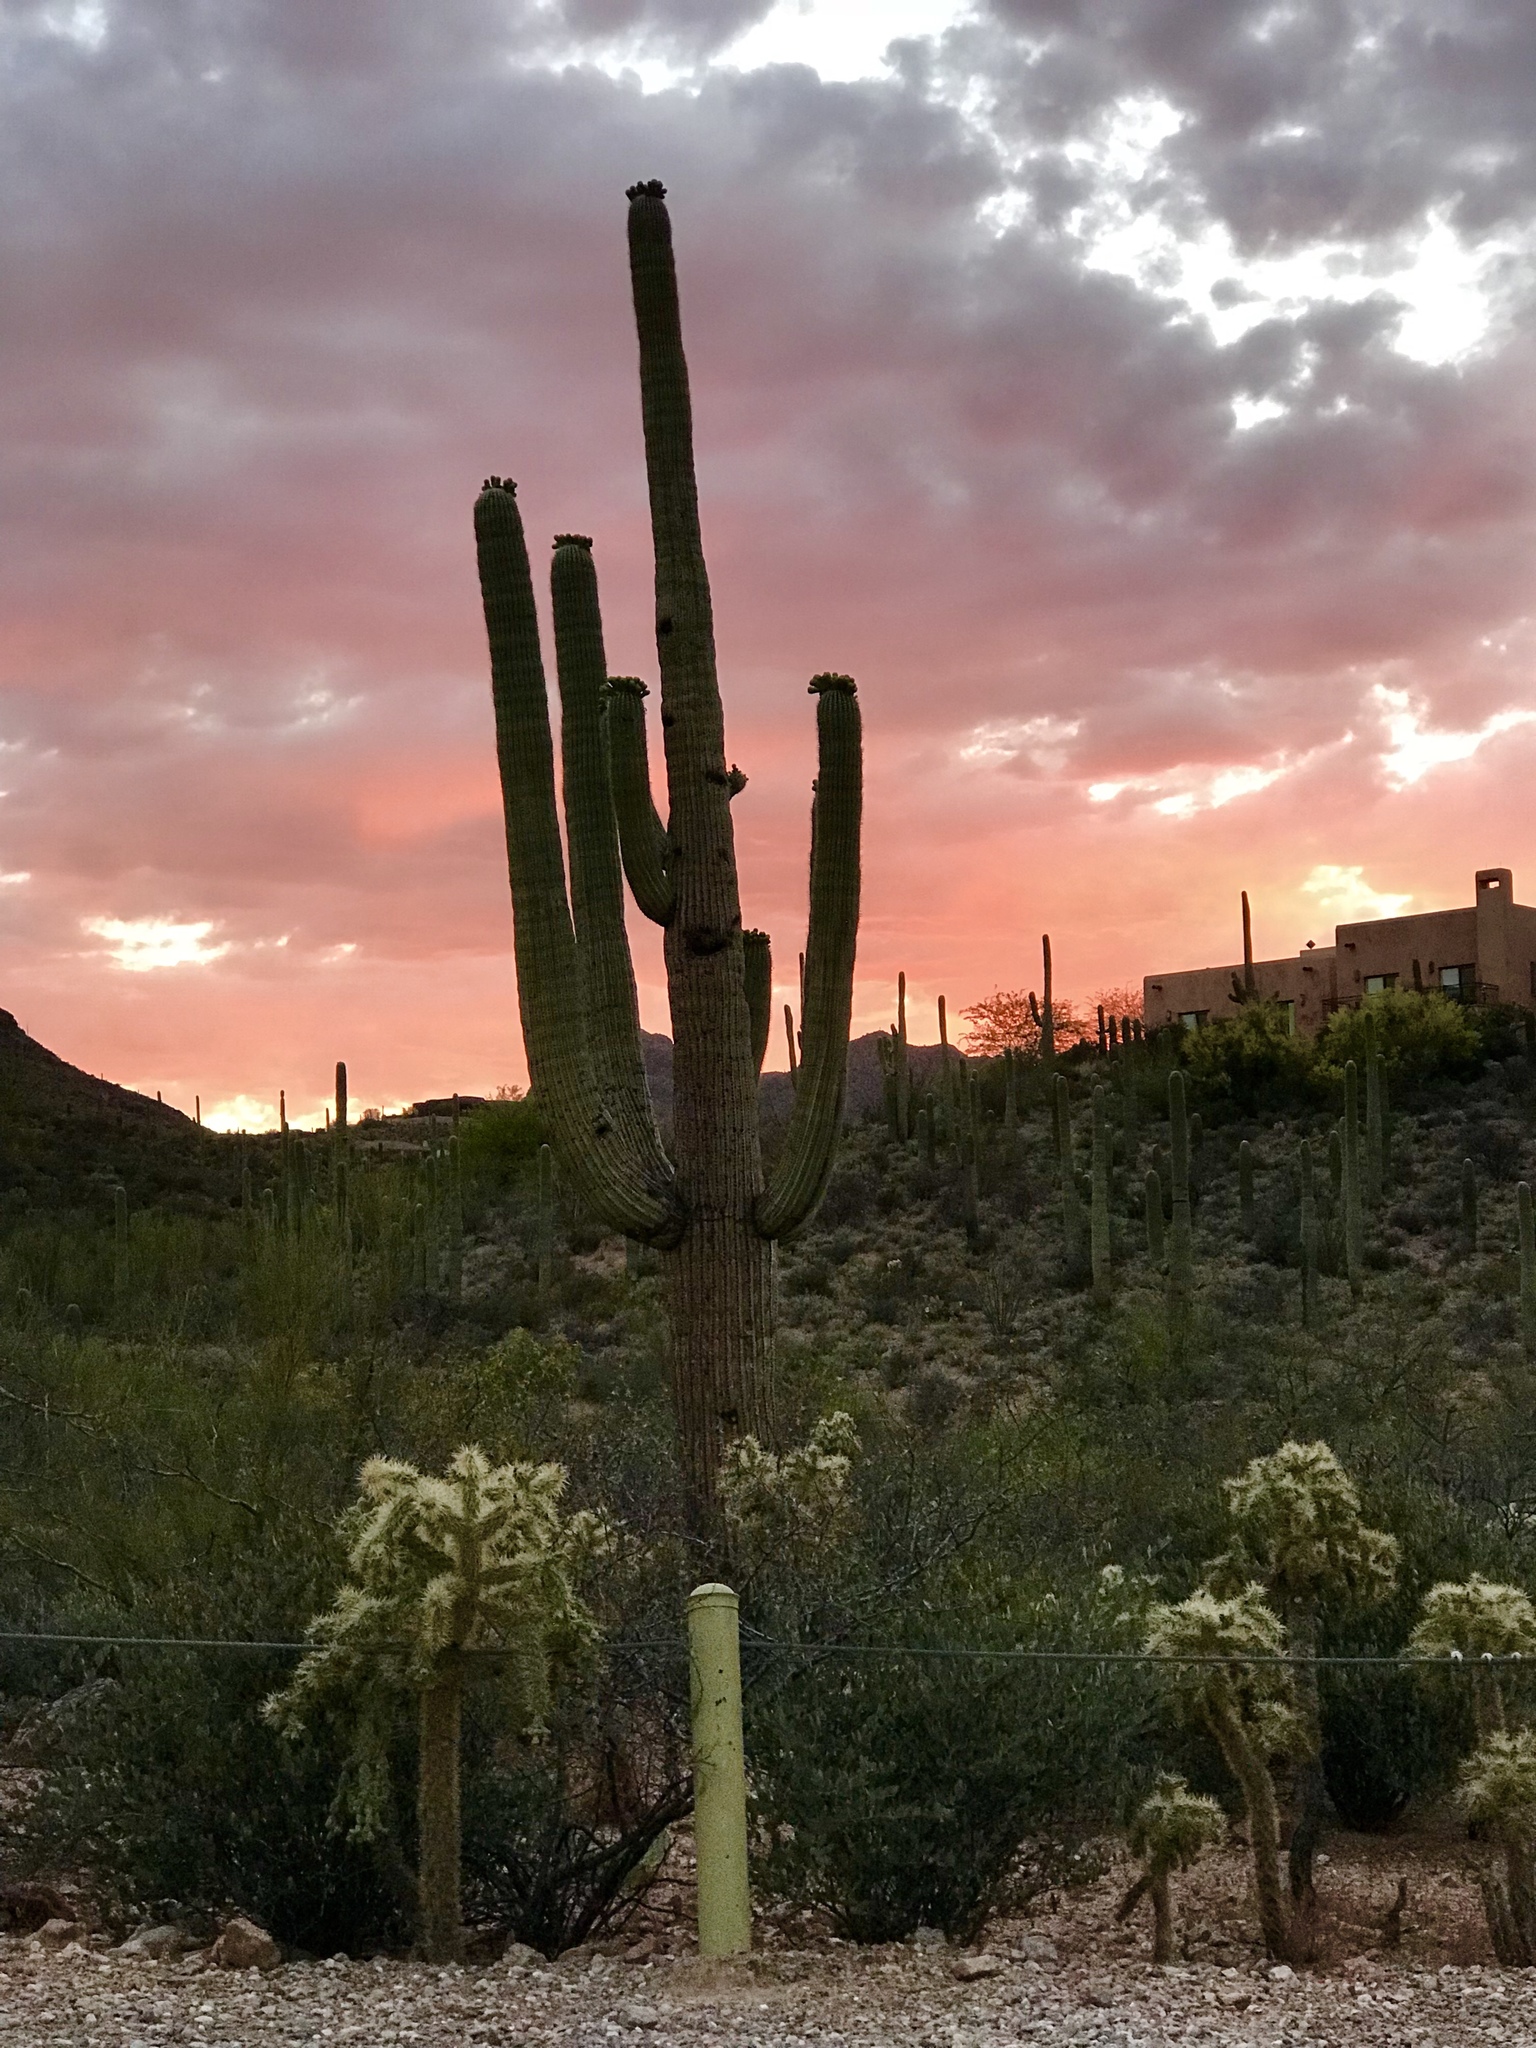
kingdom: Plantae
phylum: Tracheophyta
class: Magnoliopsida
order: Caryophyllales
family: Cactaceae
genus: Carnegiea
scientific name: Carnegiea gigantea
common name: Saguaro
